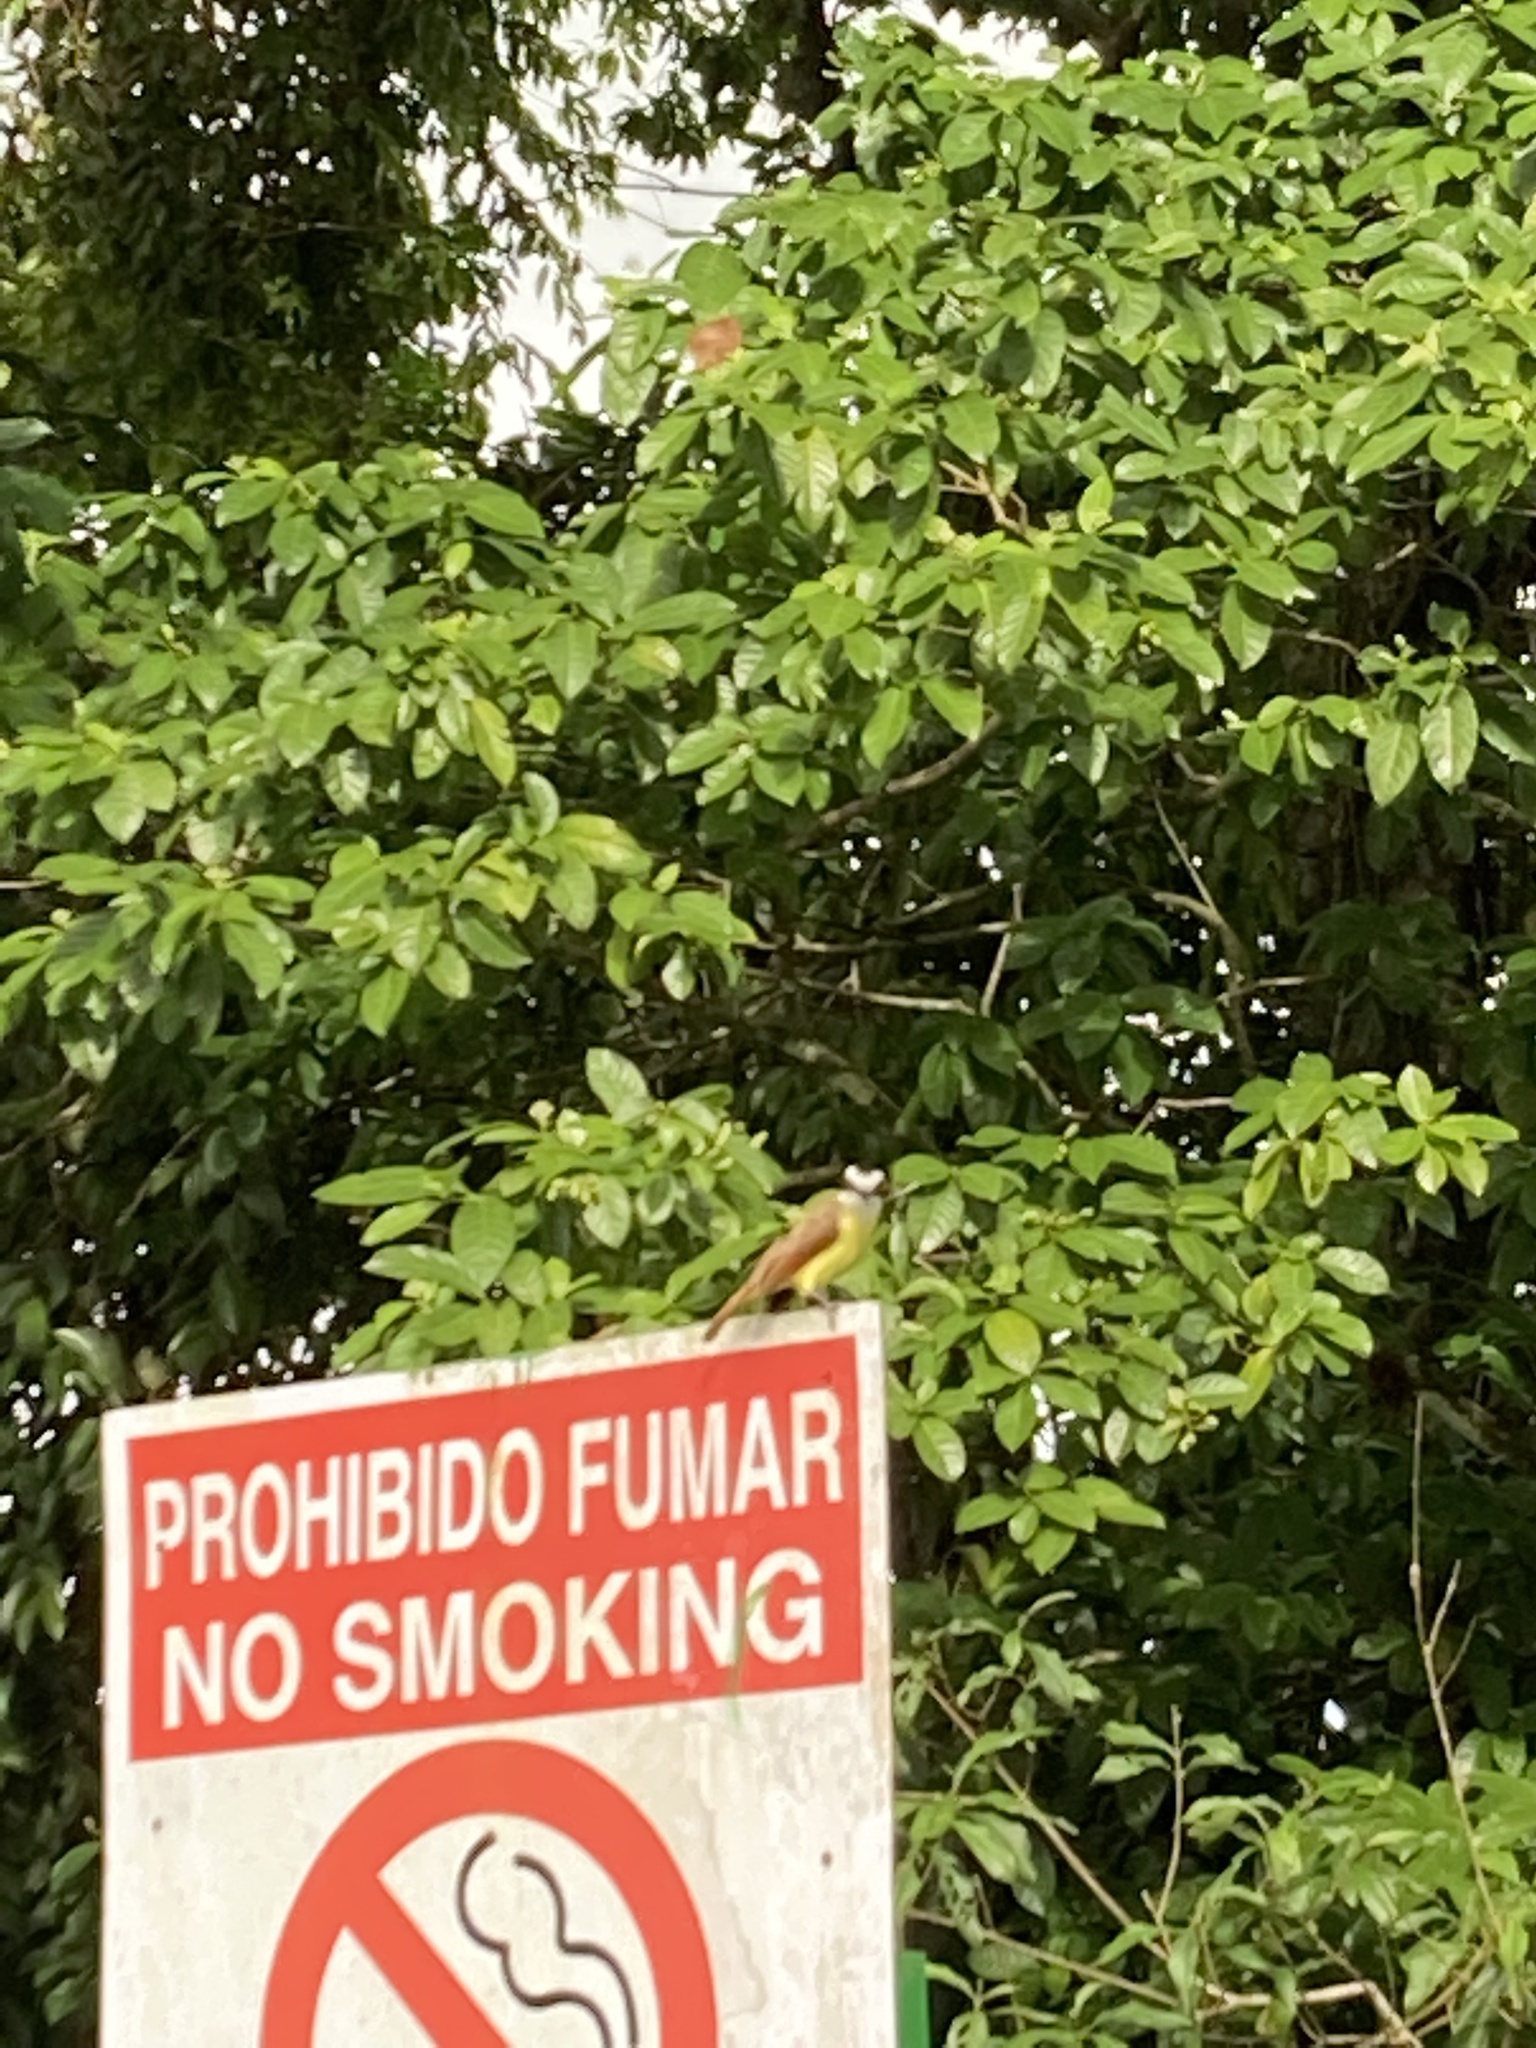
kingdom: Animalia
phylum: Chordata
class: Aves
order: Passeriformes
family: Tyrannidae
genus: Pitangus
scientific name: Pitangus sulphuratus
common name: Great kiskadee
